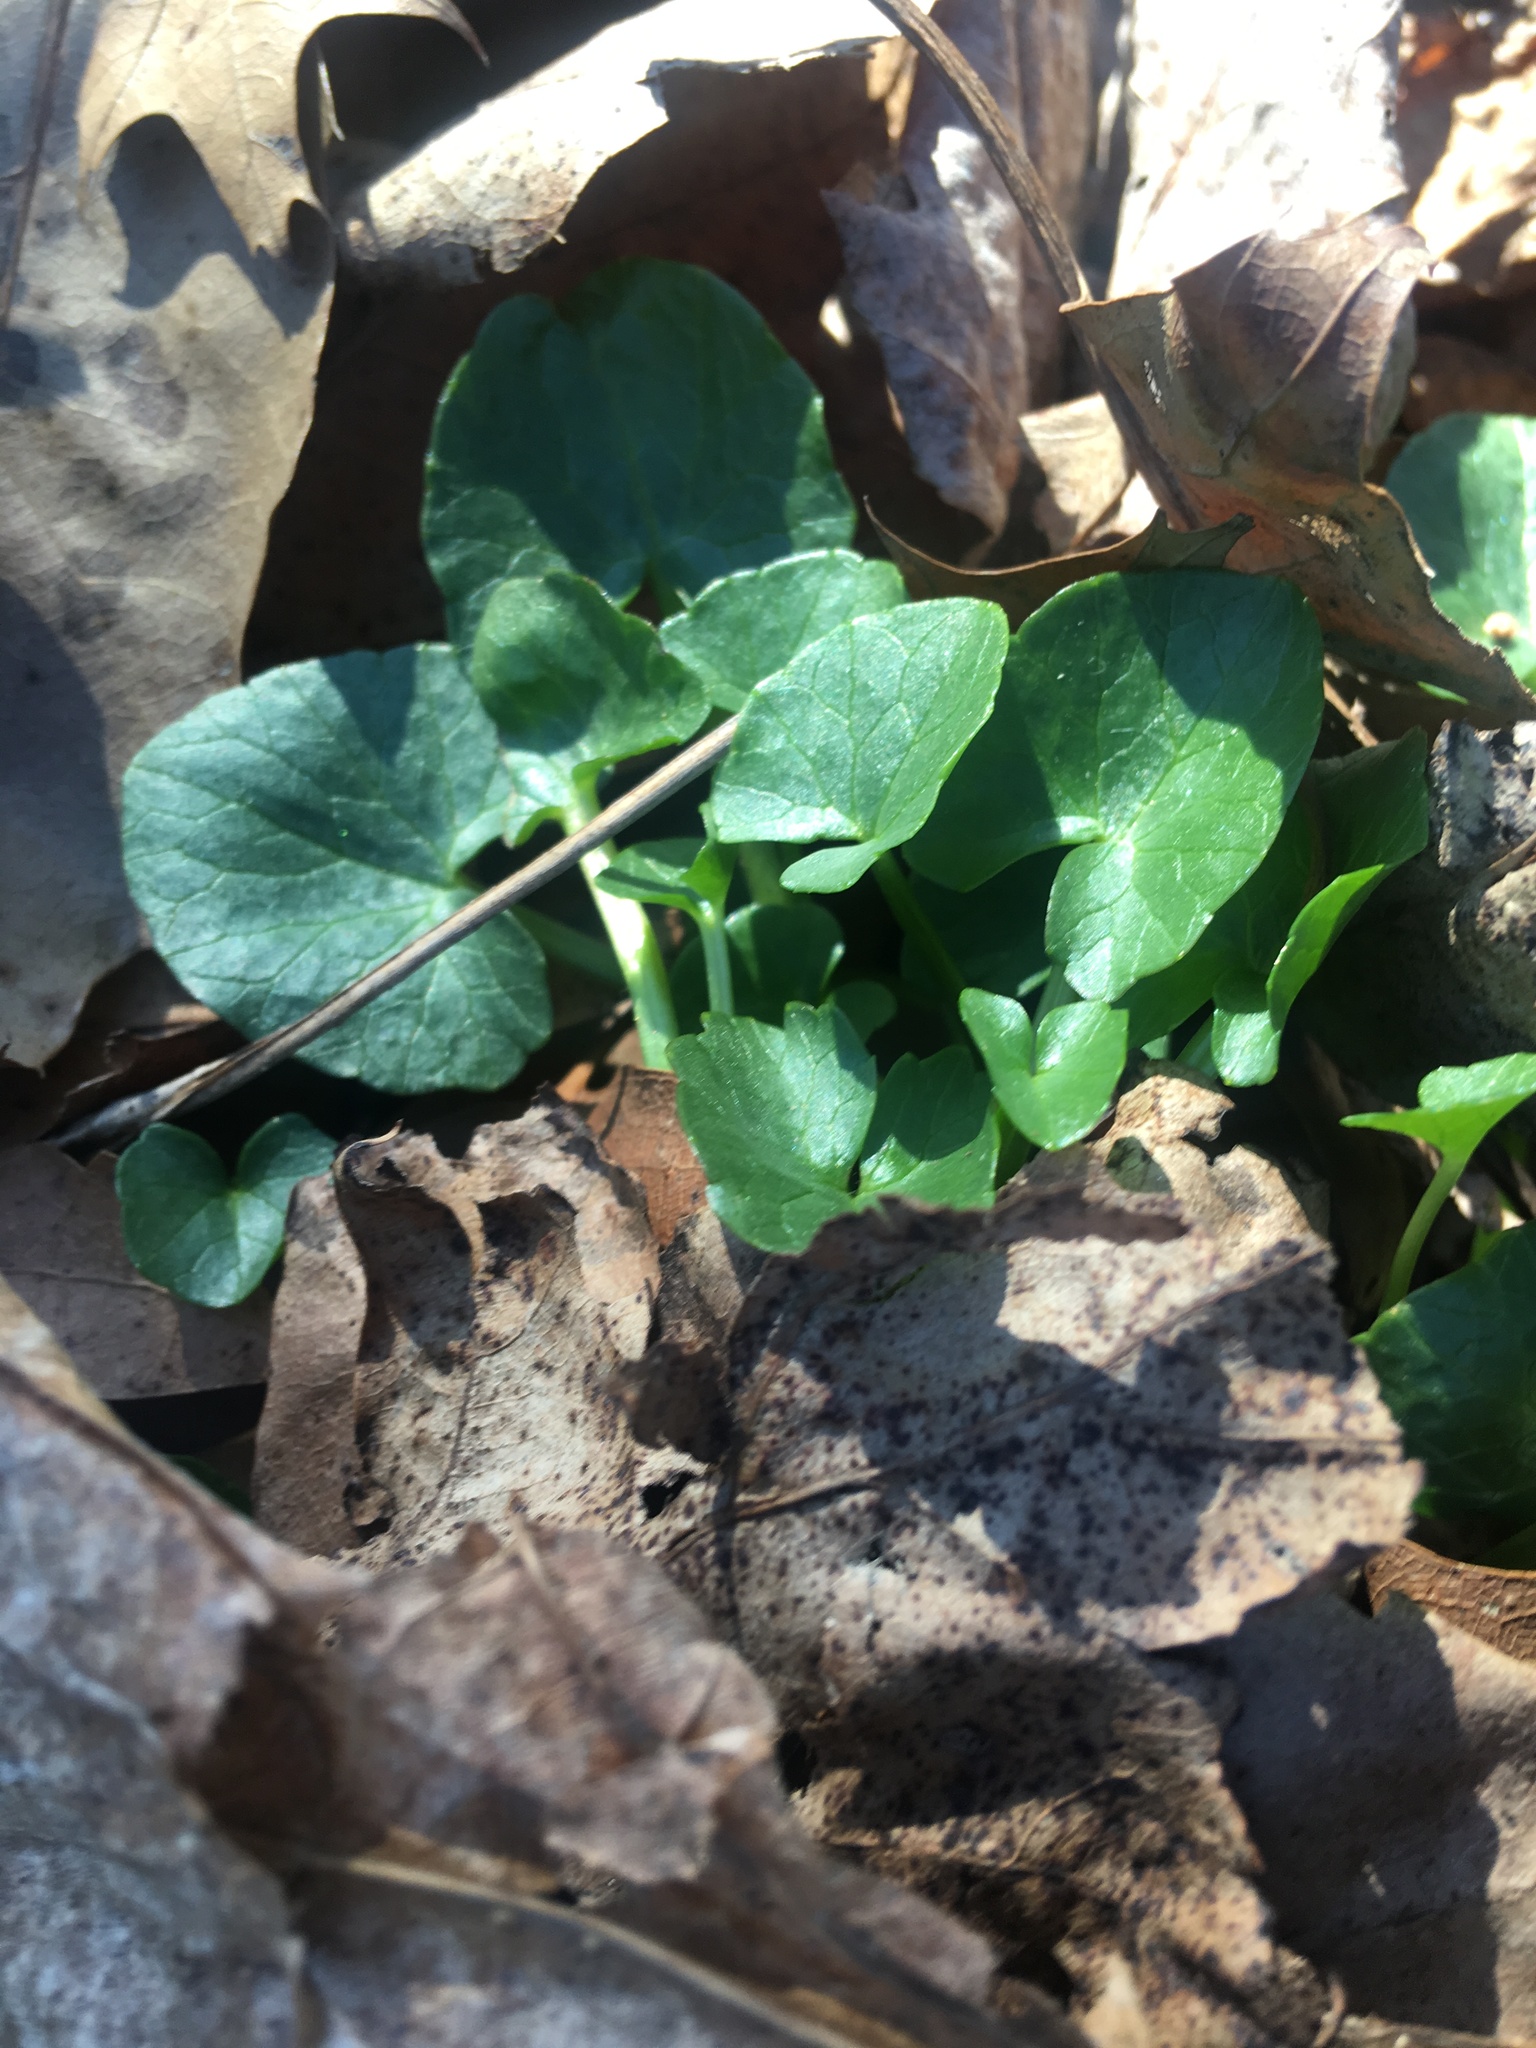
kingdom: Plantae
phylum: Tracheophyta
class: Magnoliopsida
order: Ranunculales
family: Ranunculaceae
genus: Ficaria
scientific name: Ficaria verna
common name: Lesser celandine
